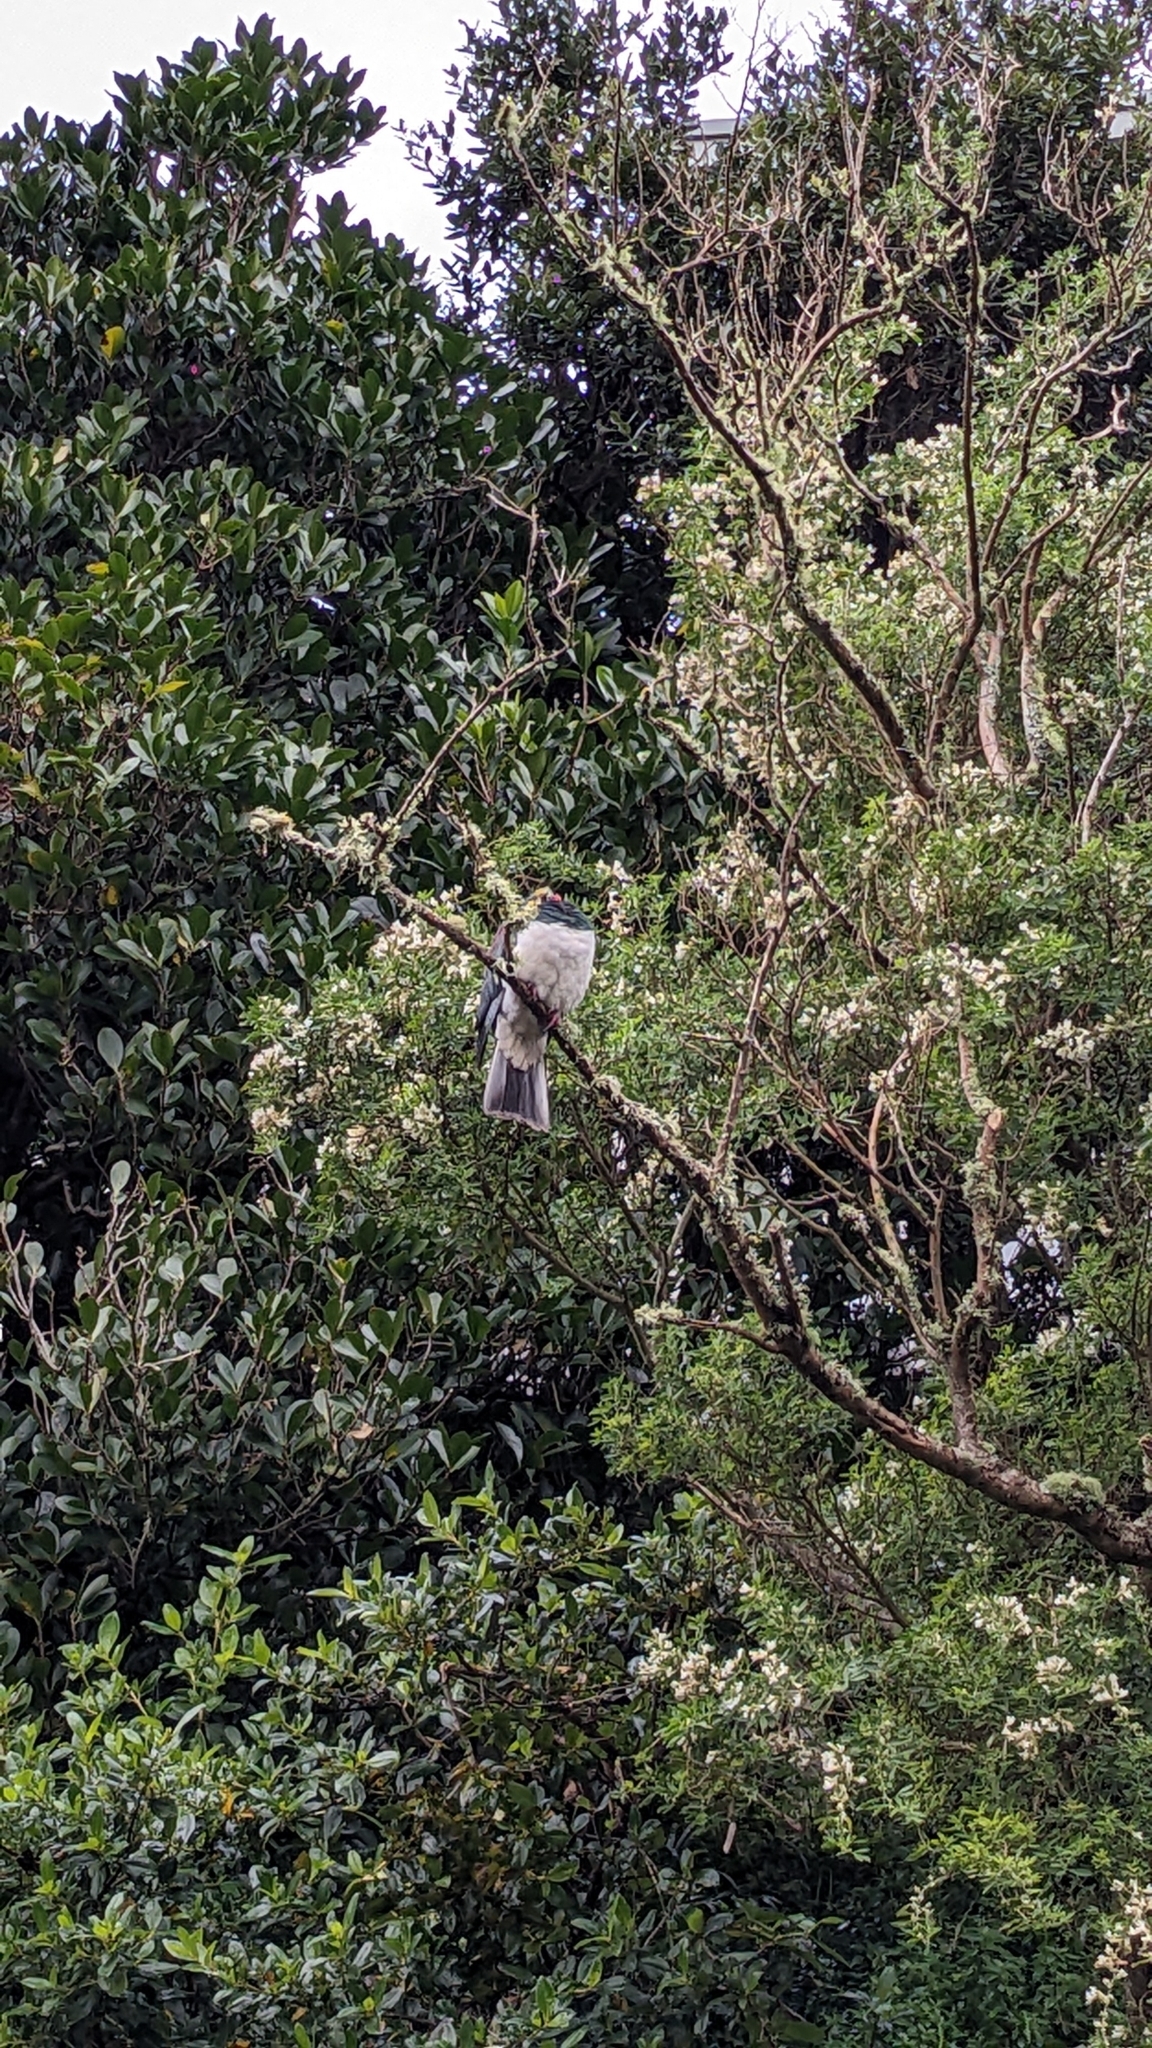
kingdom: Animalia
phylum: Chordata
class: Aves
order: Columbiformes
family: Columbidae
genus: Hemiphaga
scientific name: Hemiphaga novaeseelandiae
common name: New zealand pigeon
